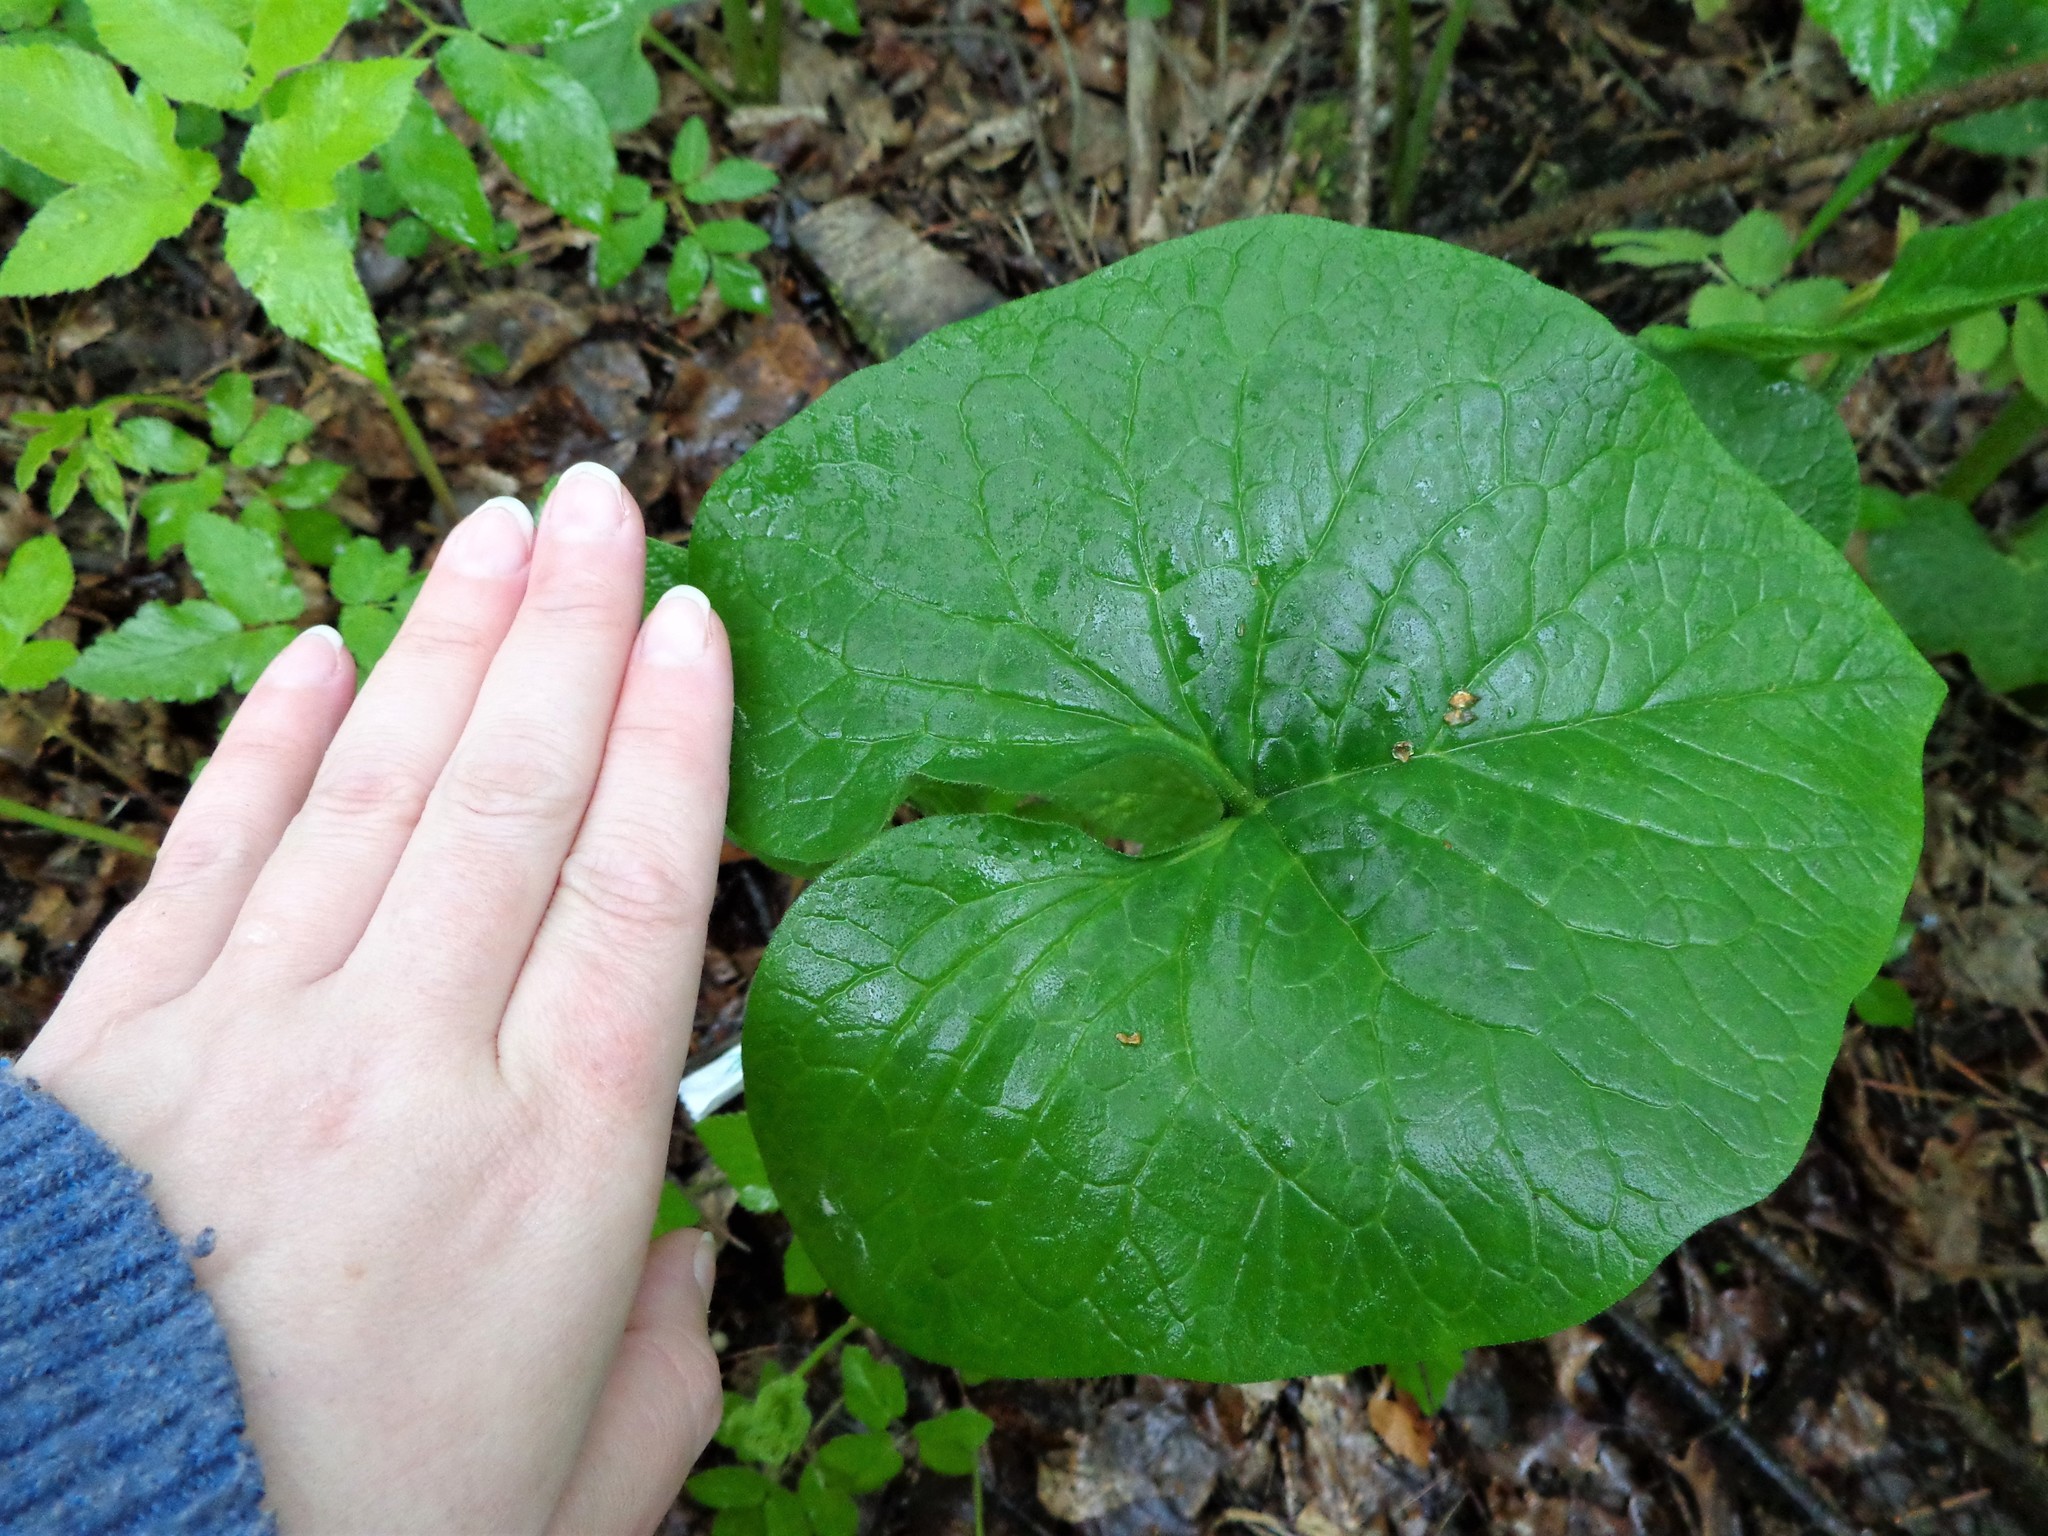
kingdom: Plantae
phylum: Tracheophyta
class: Magnoliopsida
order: Boraginales
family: Boraginaceae
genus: Brunnera
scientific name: Brunnera sibirica
